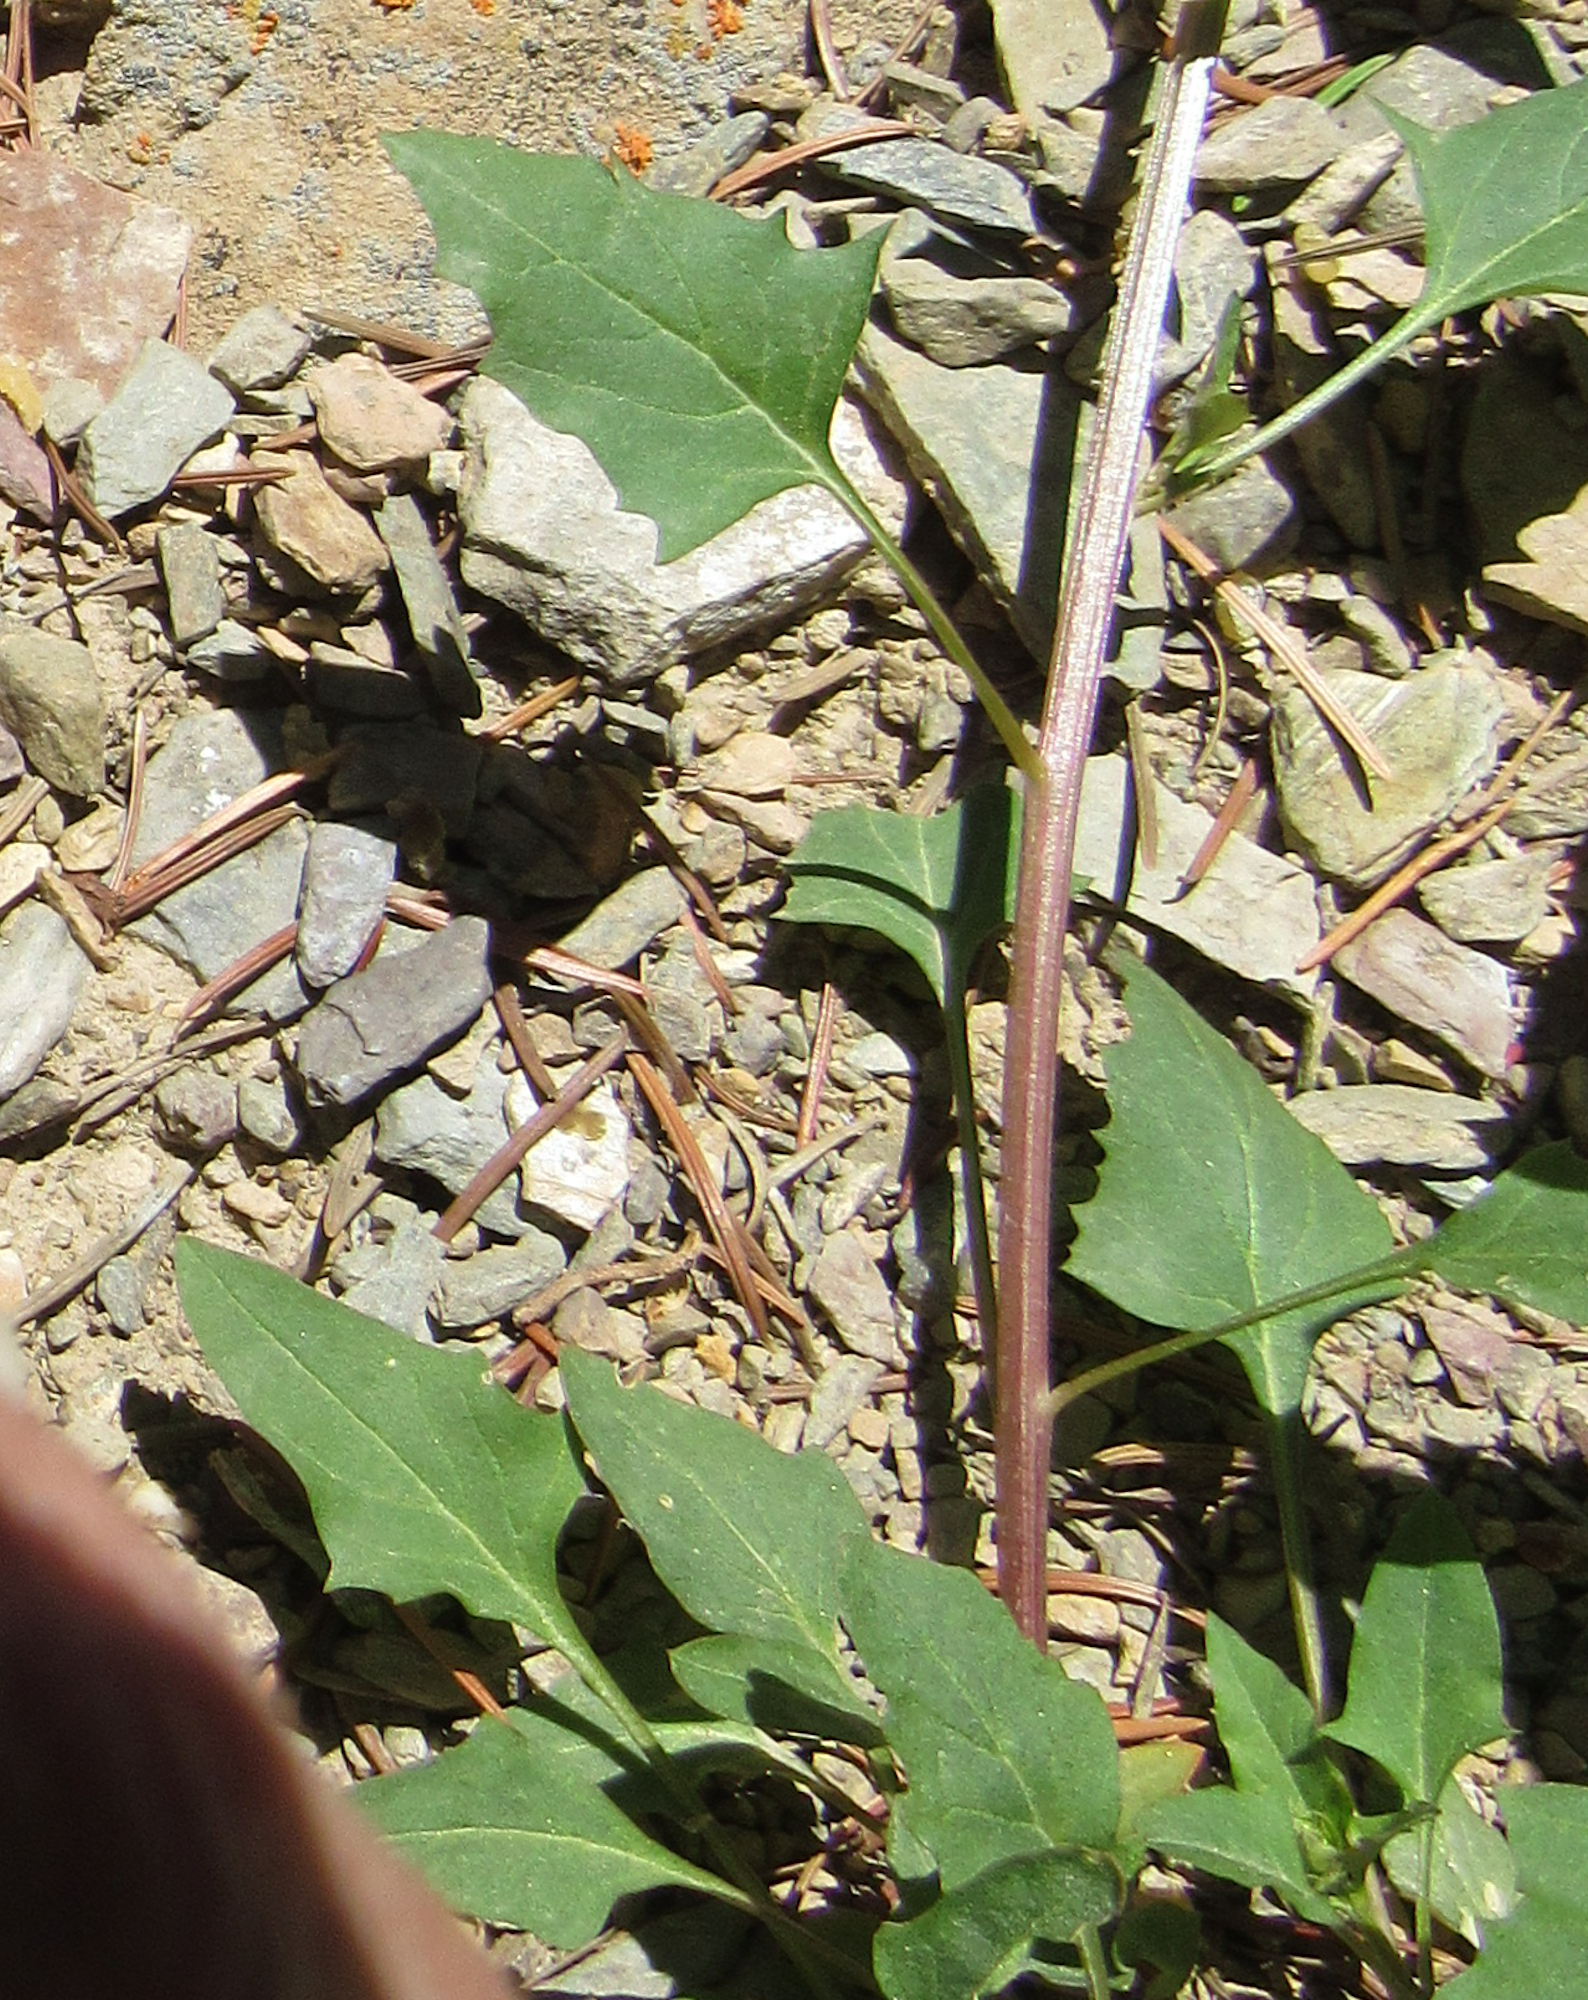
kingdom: Plantae
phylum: Tracheophyta
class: Magnoliopsida
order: Caryophyllales
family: Amaranthaceae
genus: Chenopodium
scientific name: Chenopodium album
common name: Fat-hen
